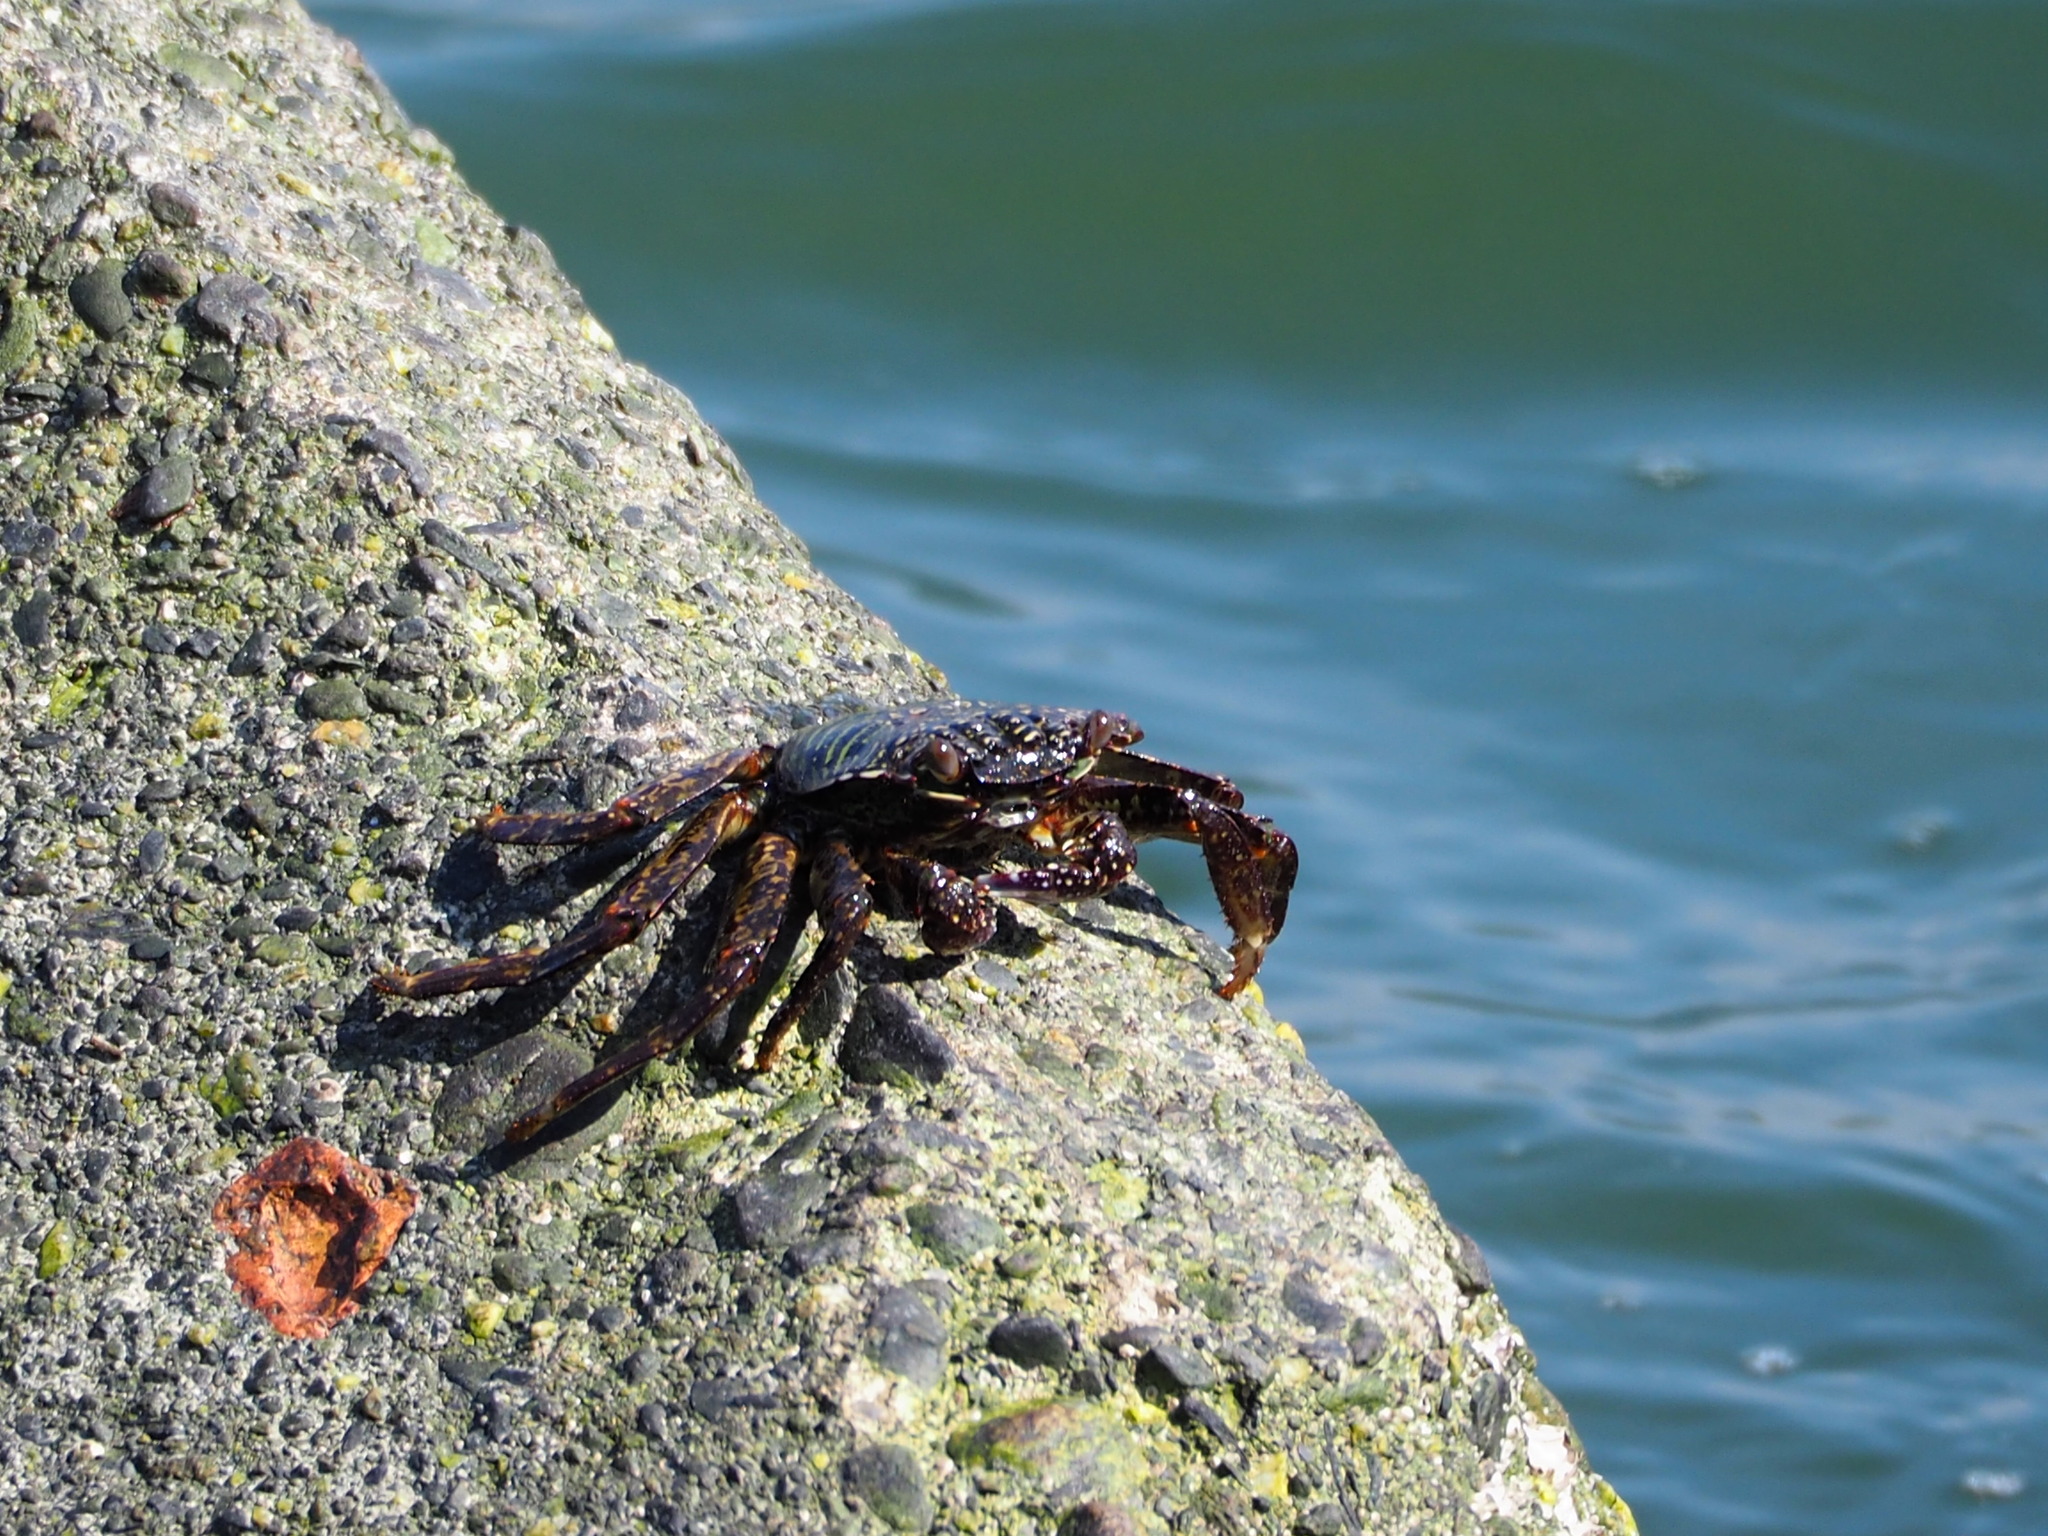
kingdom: Animalia
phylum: Arthropoda
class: Malacostraca
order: Decapoda
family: Grapsidae
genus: Grapsus
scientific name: Grapsus albolineatus
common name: Mottled lightfoot crab
